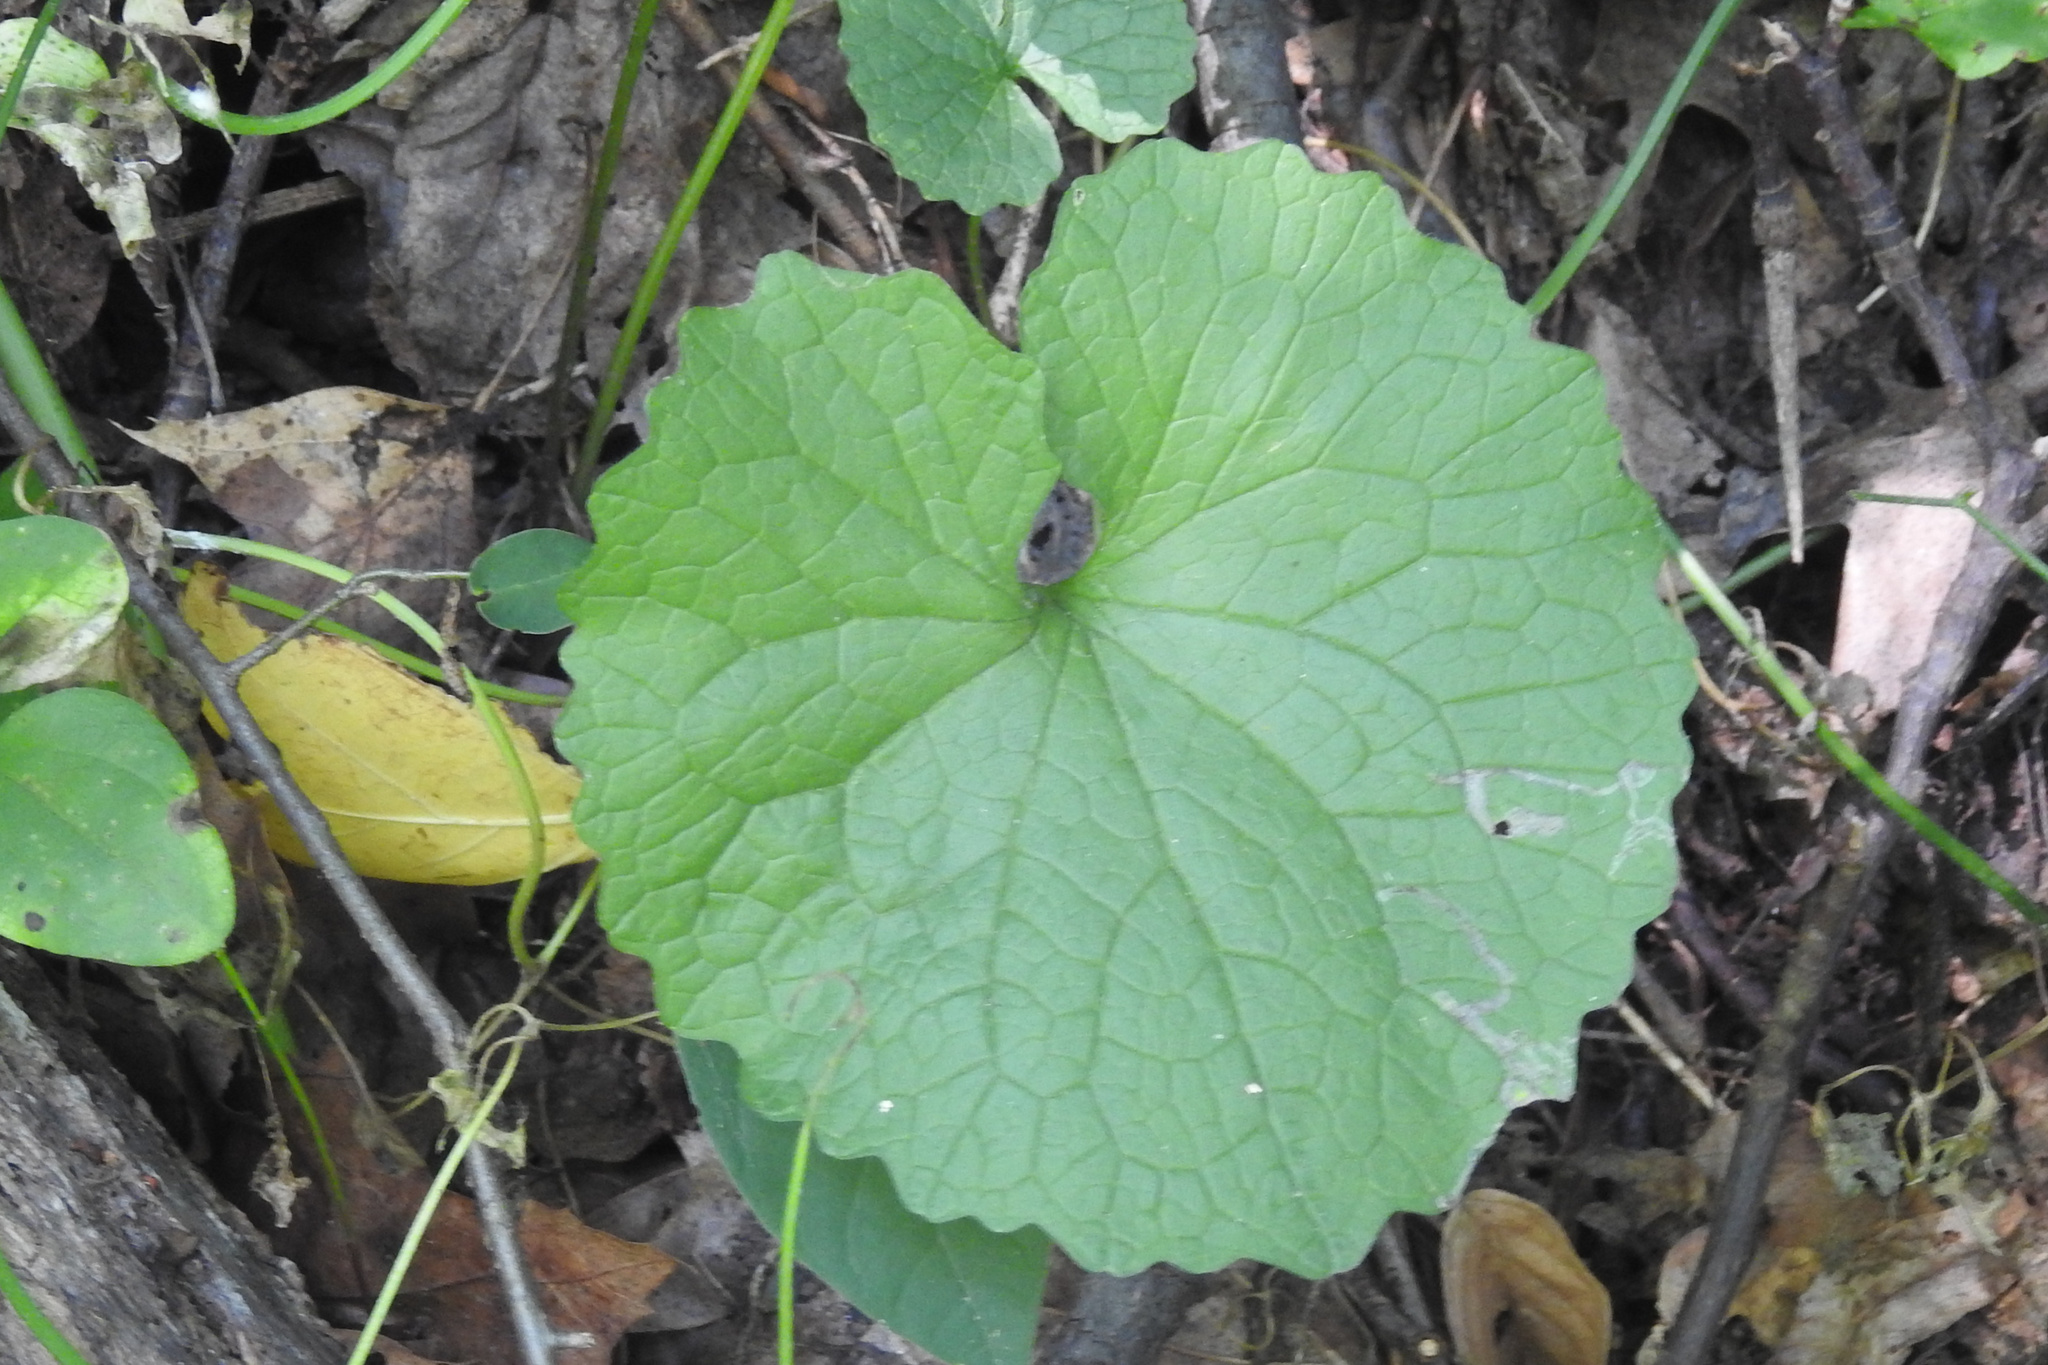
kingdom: Plantae
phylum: Tracheophyta
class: Magnoliopsida
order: Brassicales
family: Brassicaceae
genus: Alliaria
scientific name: Alliaria petiolata
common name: Garlic mustard
